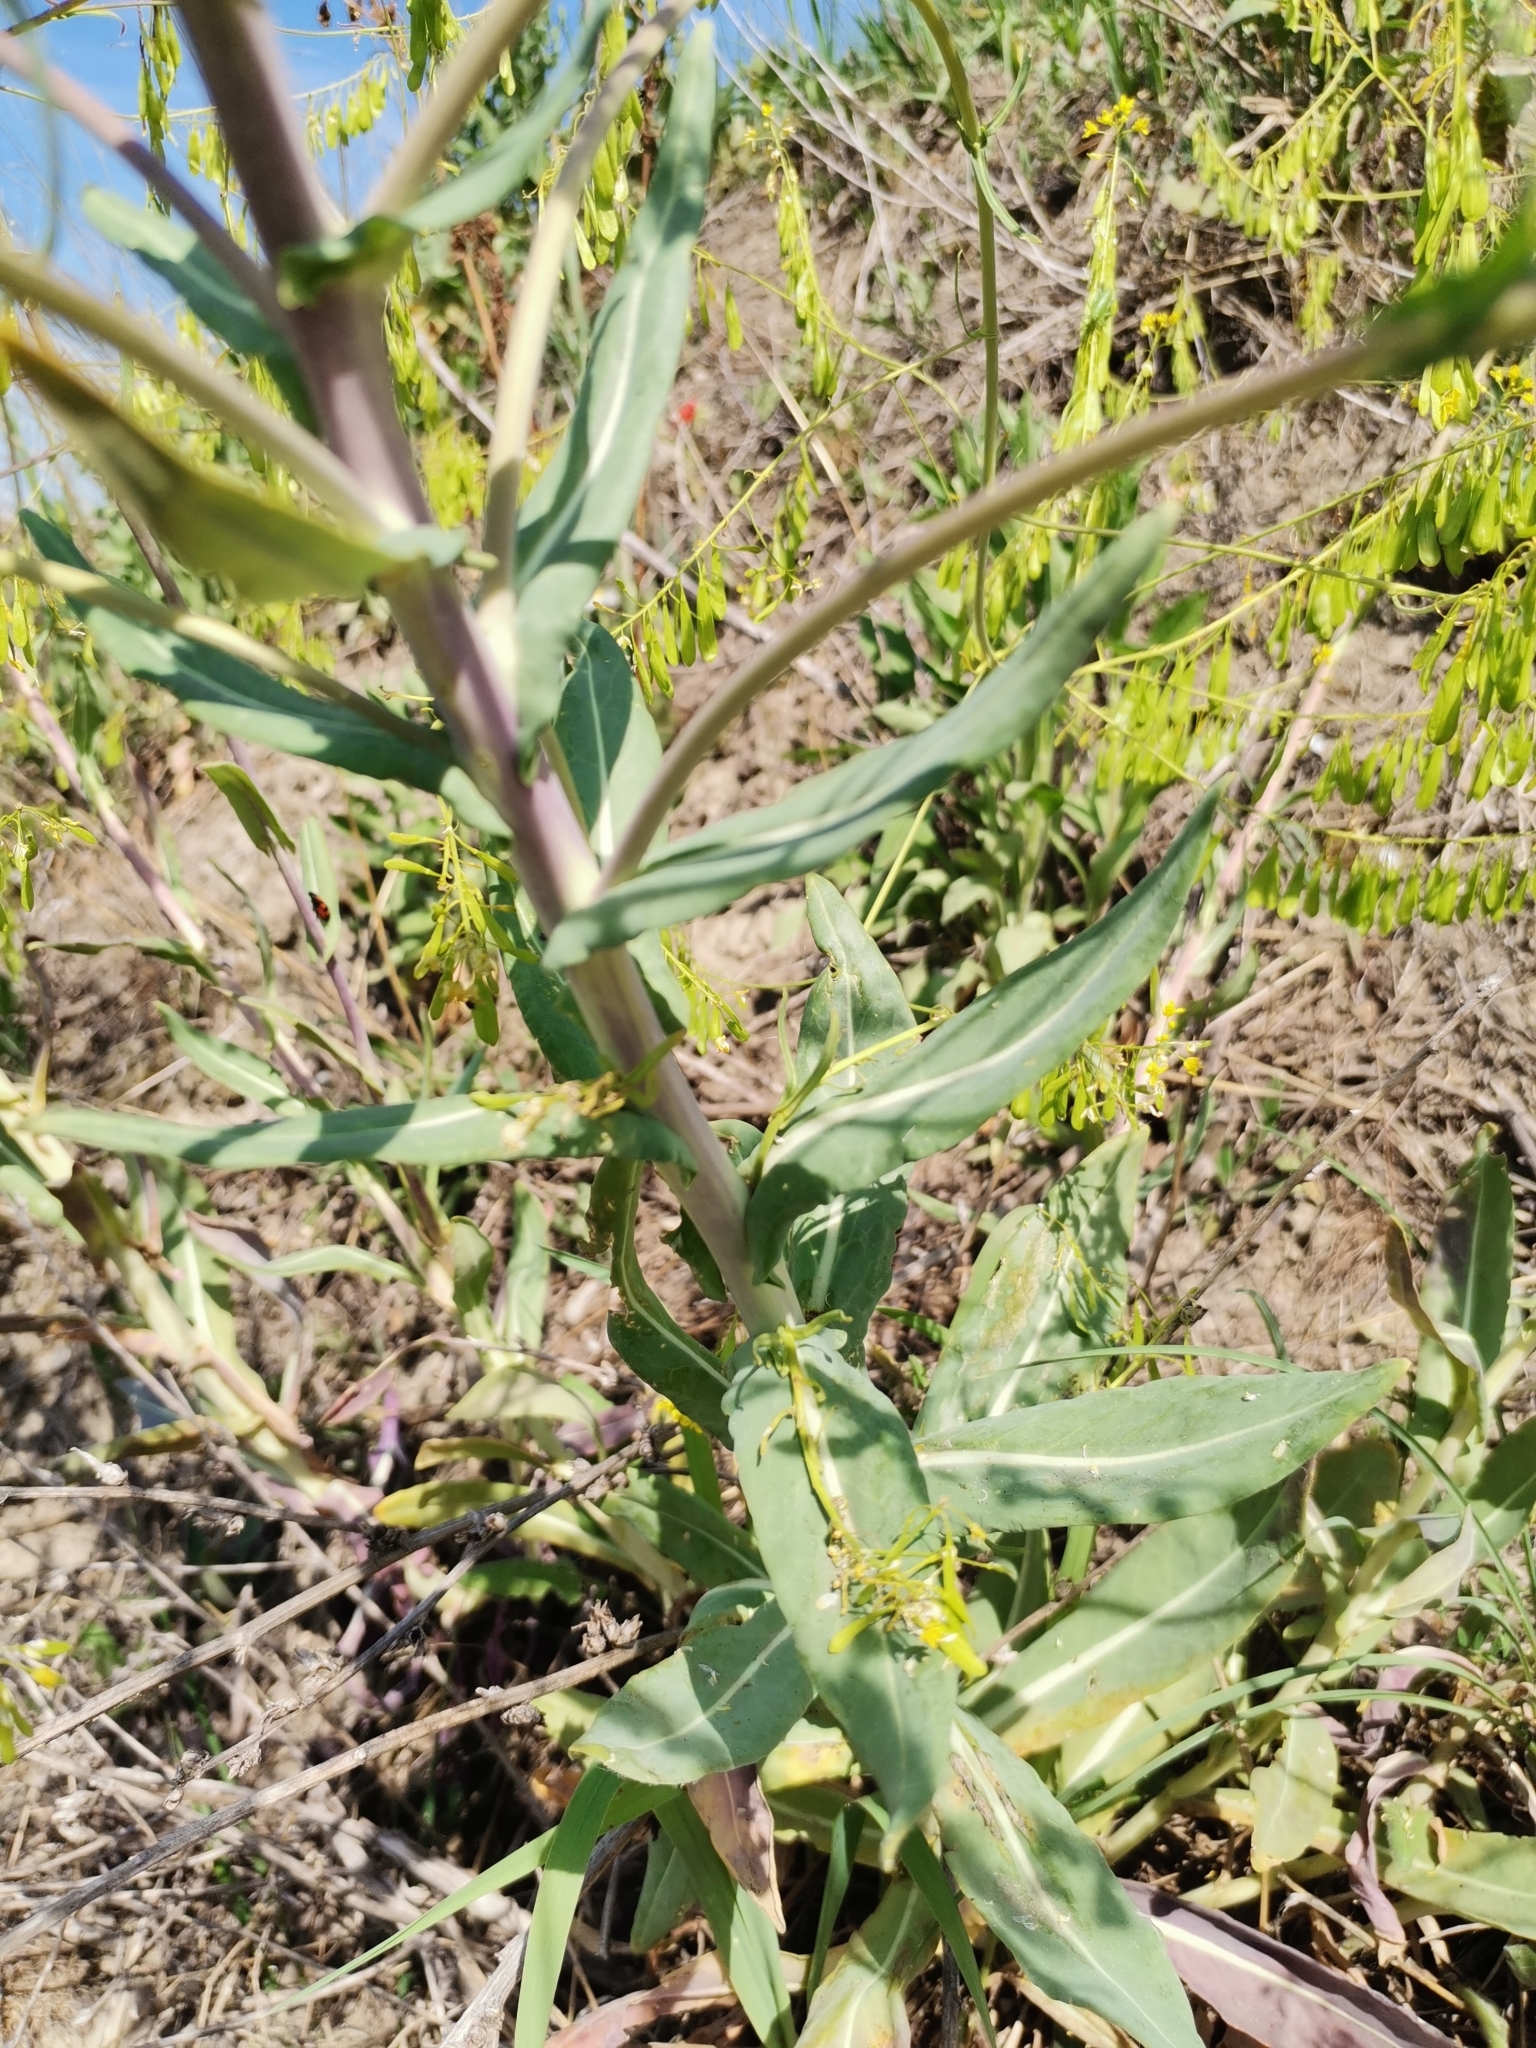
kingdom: Plantae
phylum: Tracheophyta
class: Magnoliopsida
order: Brassicales
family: Brassicaceae
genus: Isatis
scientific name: Isatis tinctoria
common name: Woad
